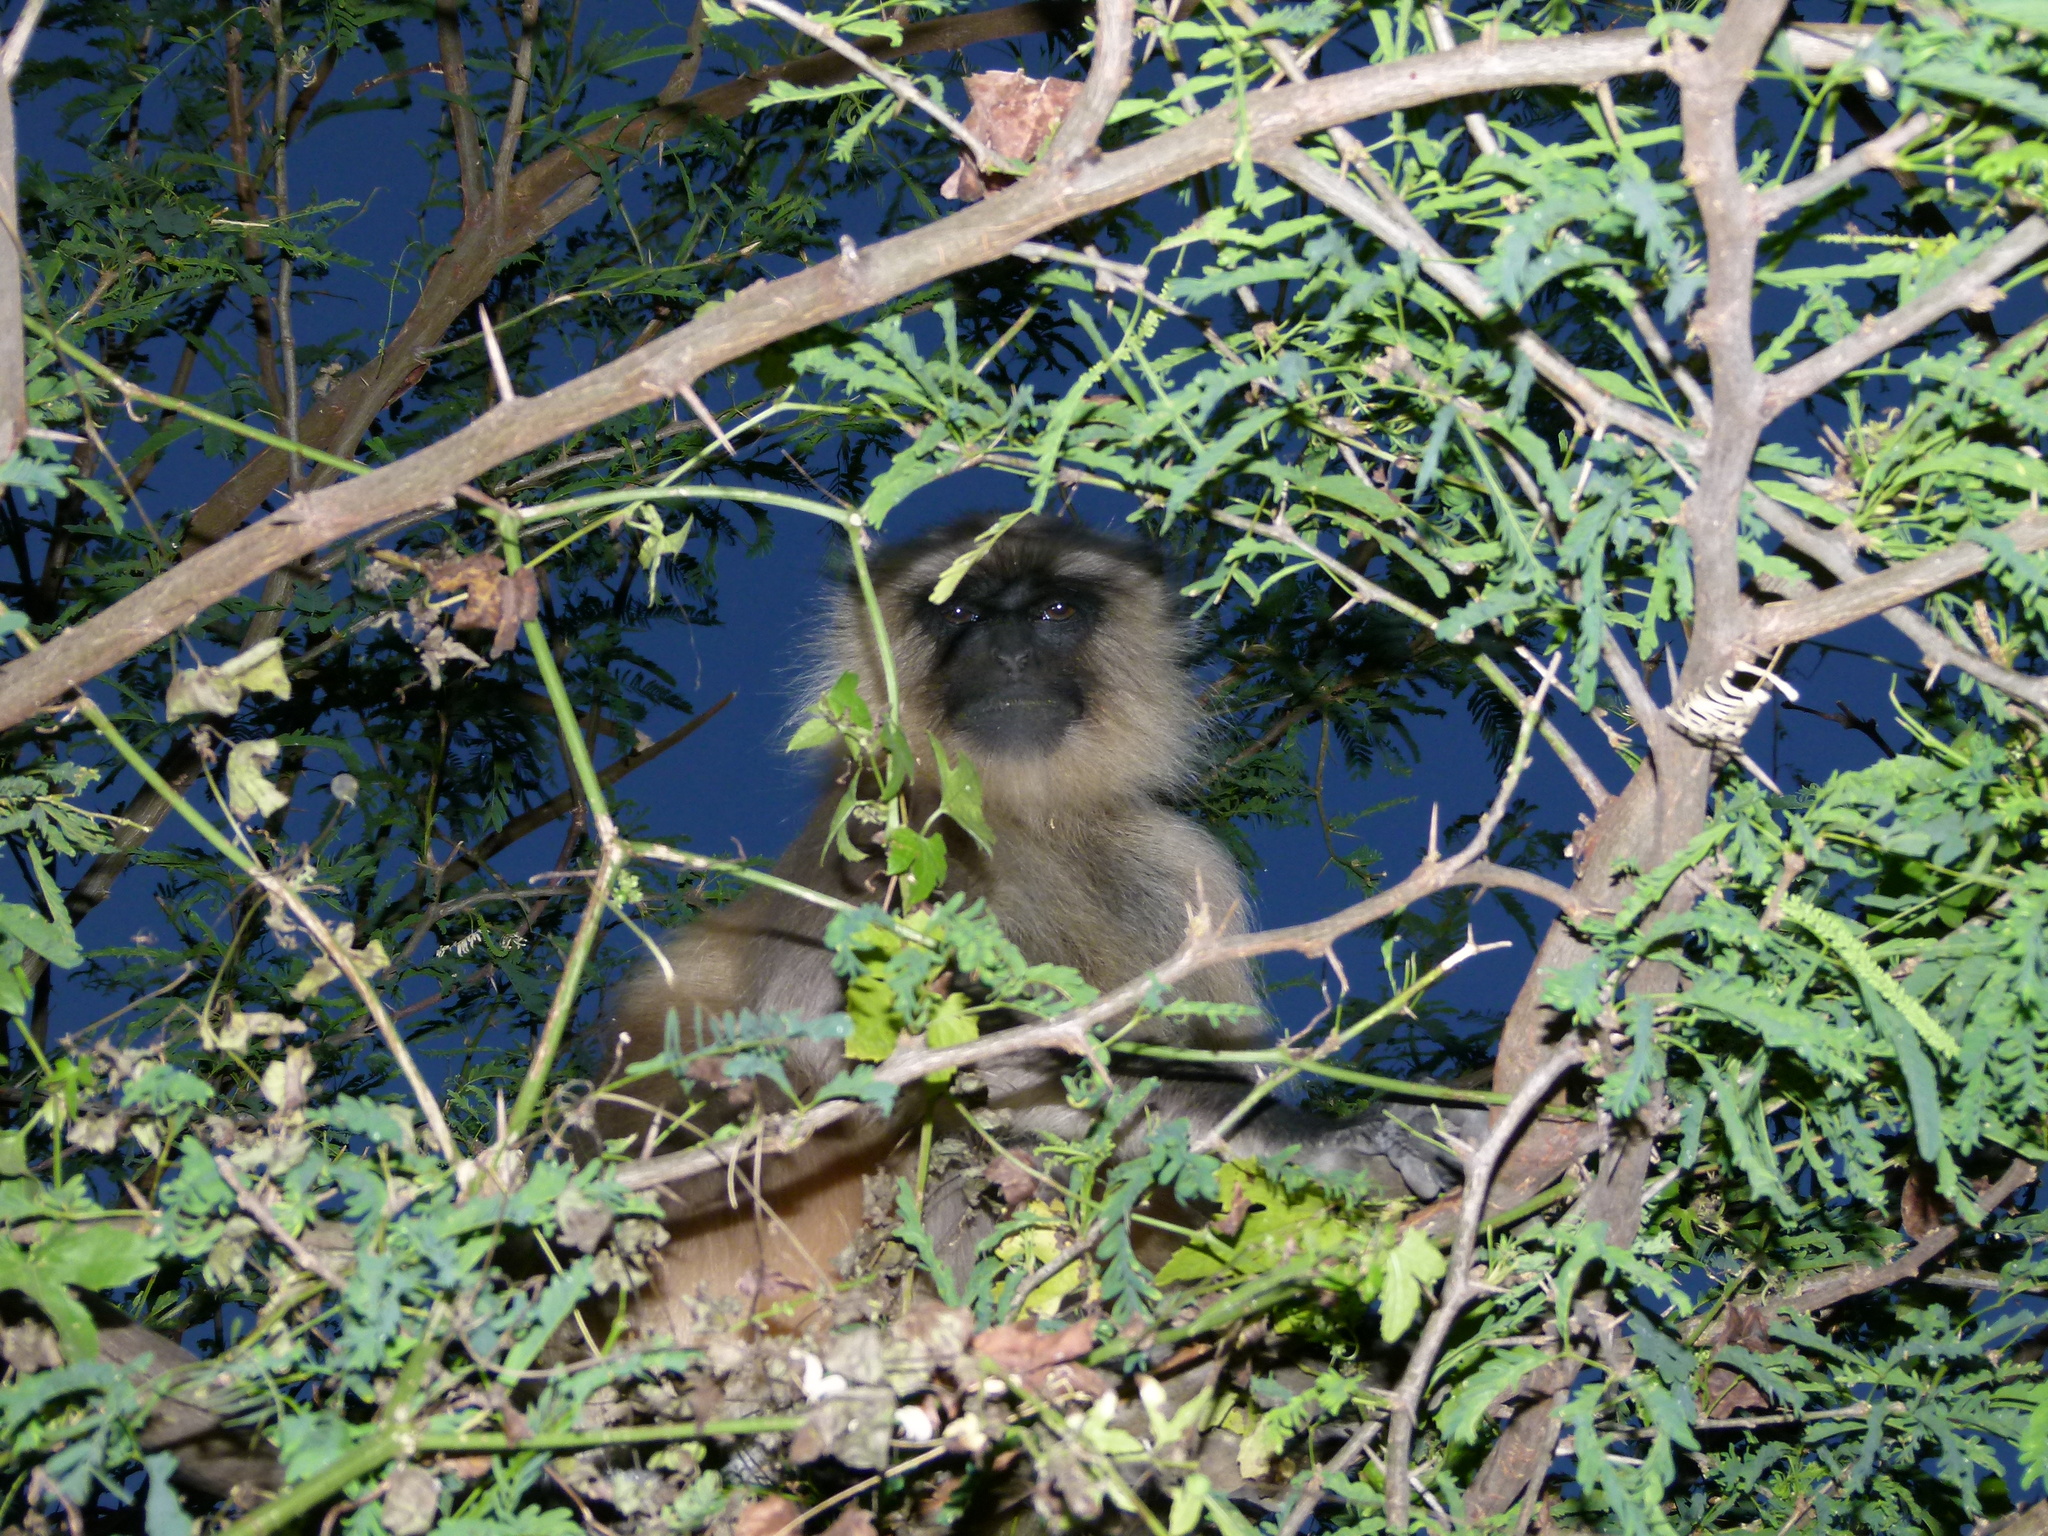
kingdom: Animalia
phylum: Chordata
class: Mammalia
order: Primates
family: Cercopithecidae
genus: Semnopithecus
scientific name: Semnopithecus entellus
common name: Northern plains gray langur
